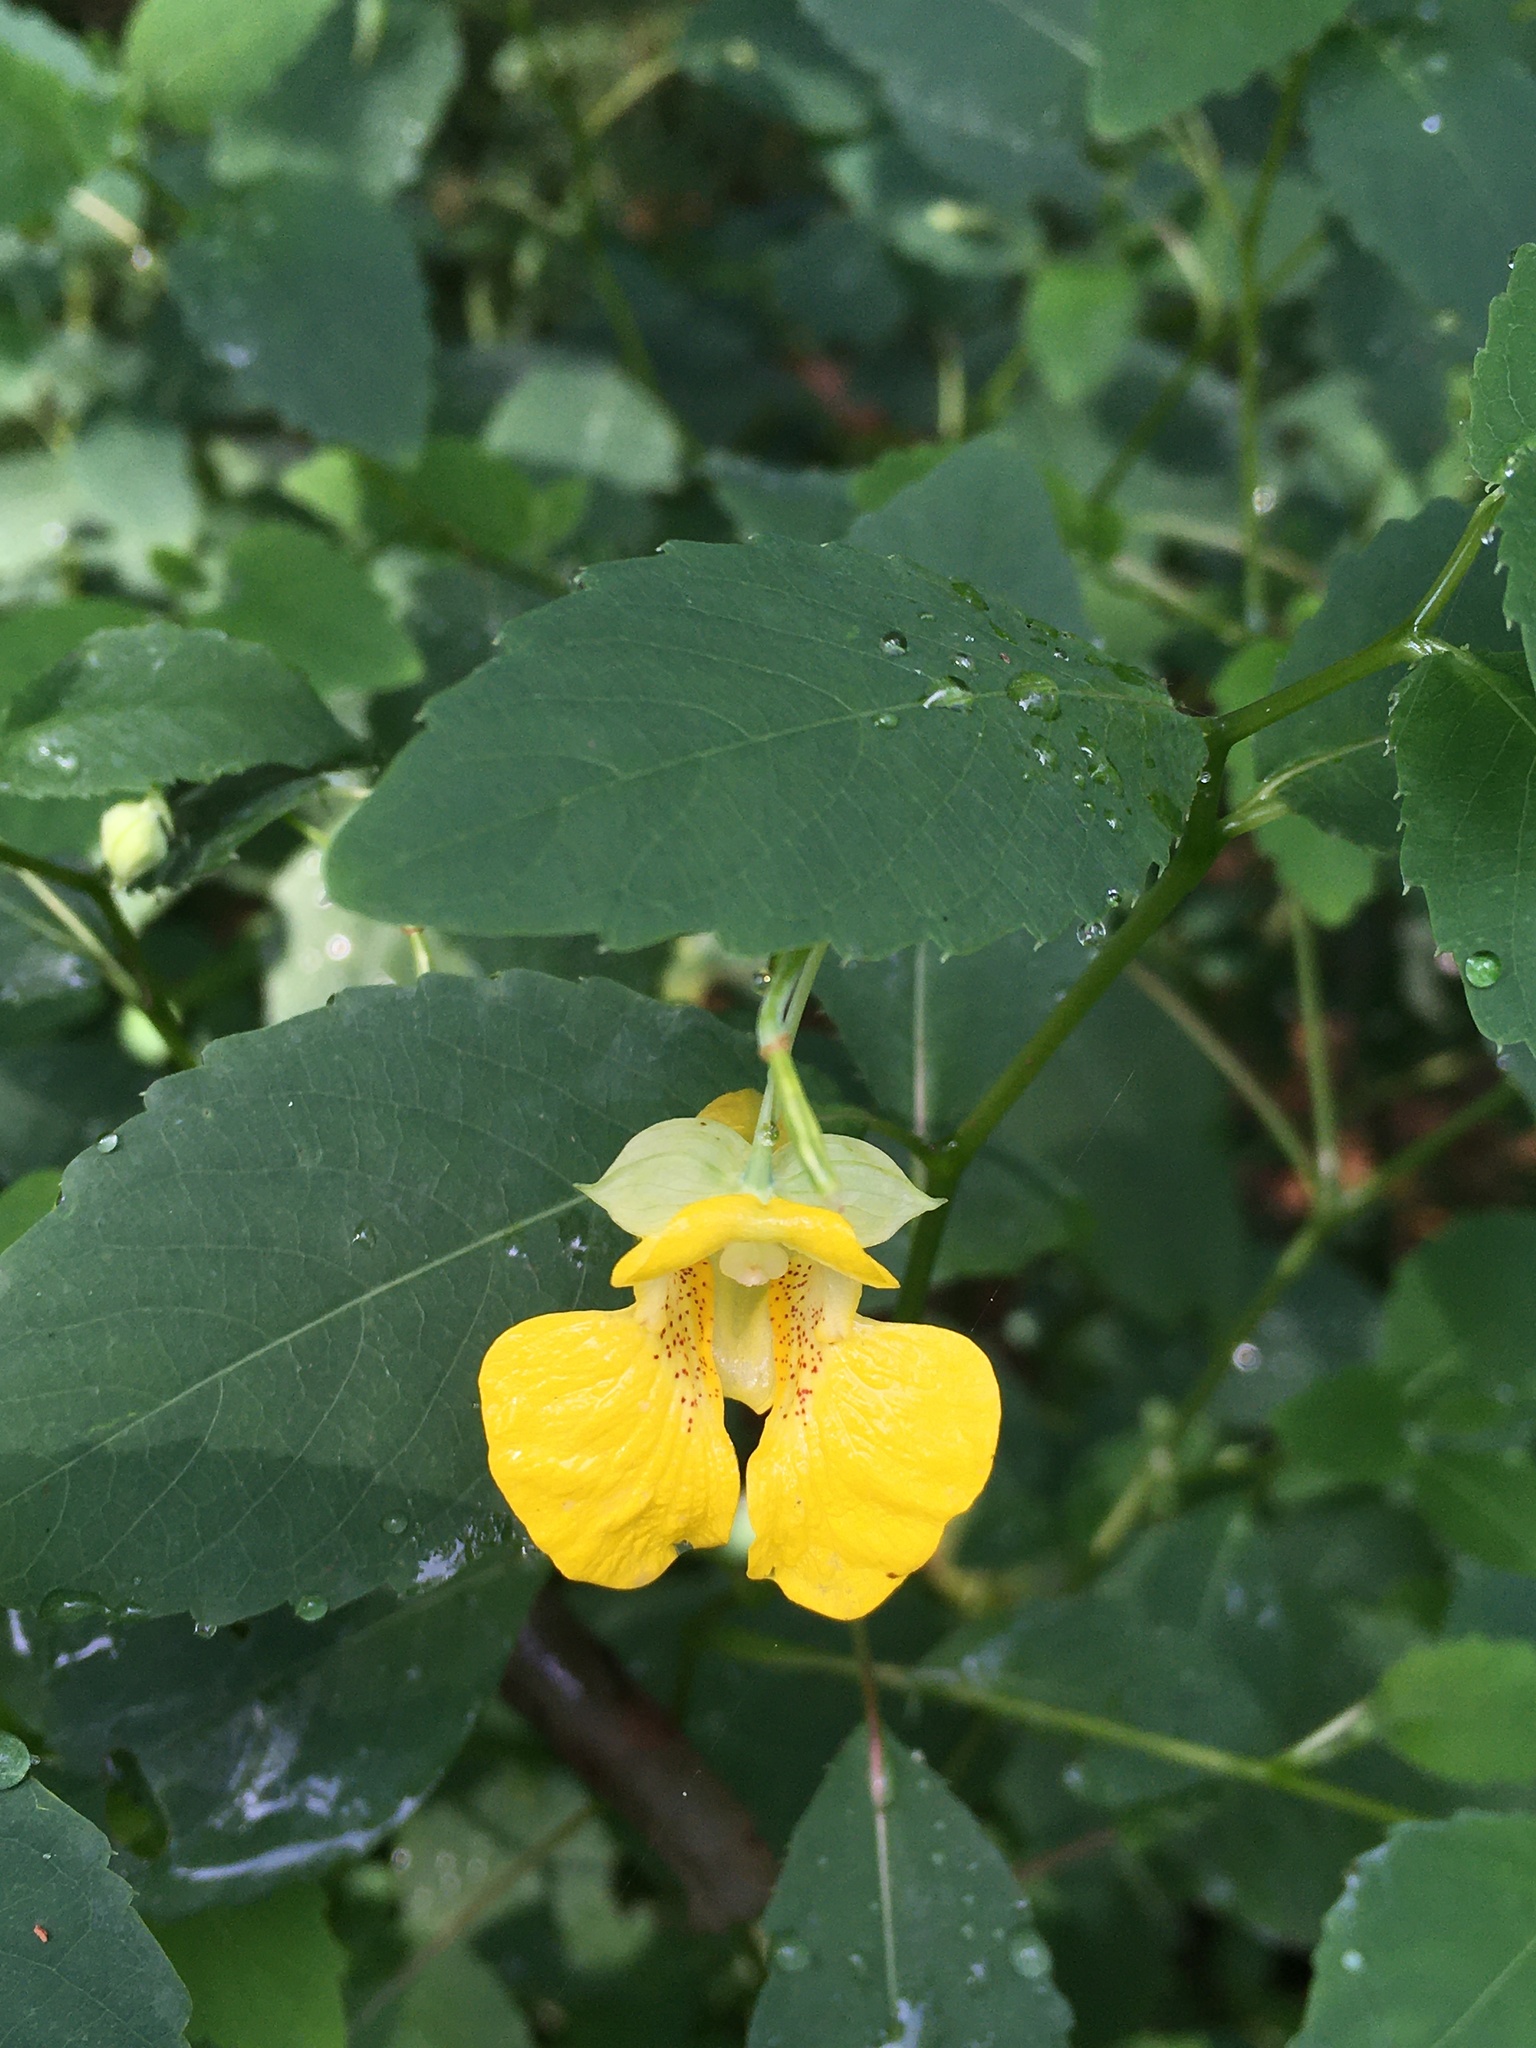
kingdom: Plantae
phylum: Tracheophyta
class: Magnoliopsida
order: Ericales
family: Balsaminaceae
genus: Impatiens
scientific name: Impatiens pallida
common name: Pale snapweed
